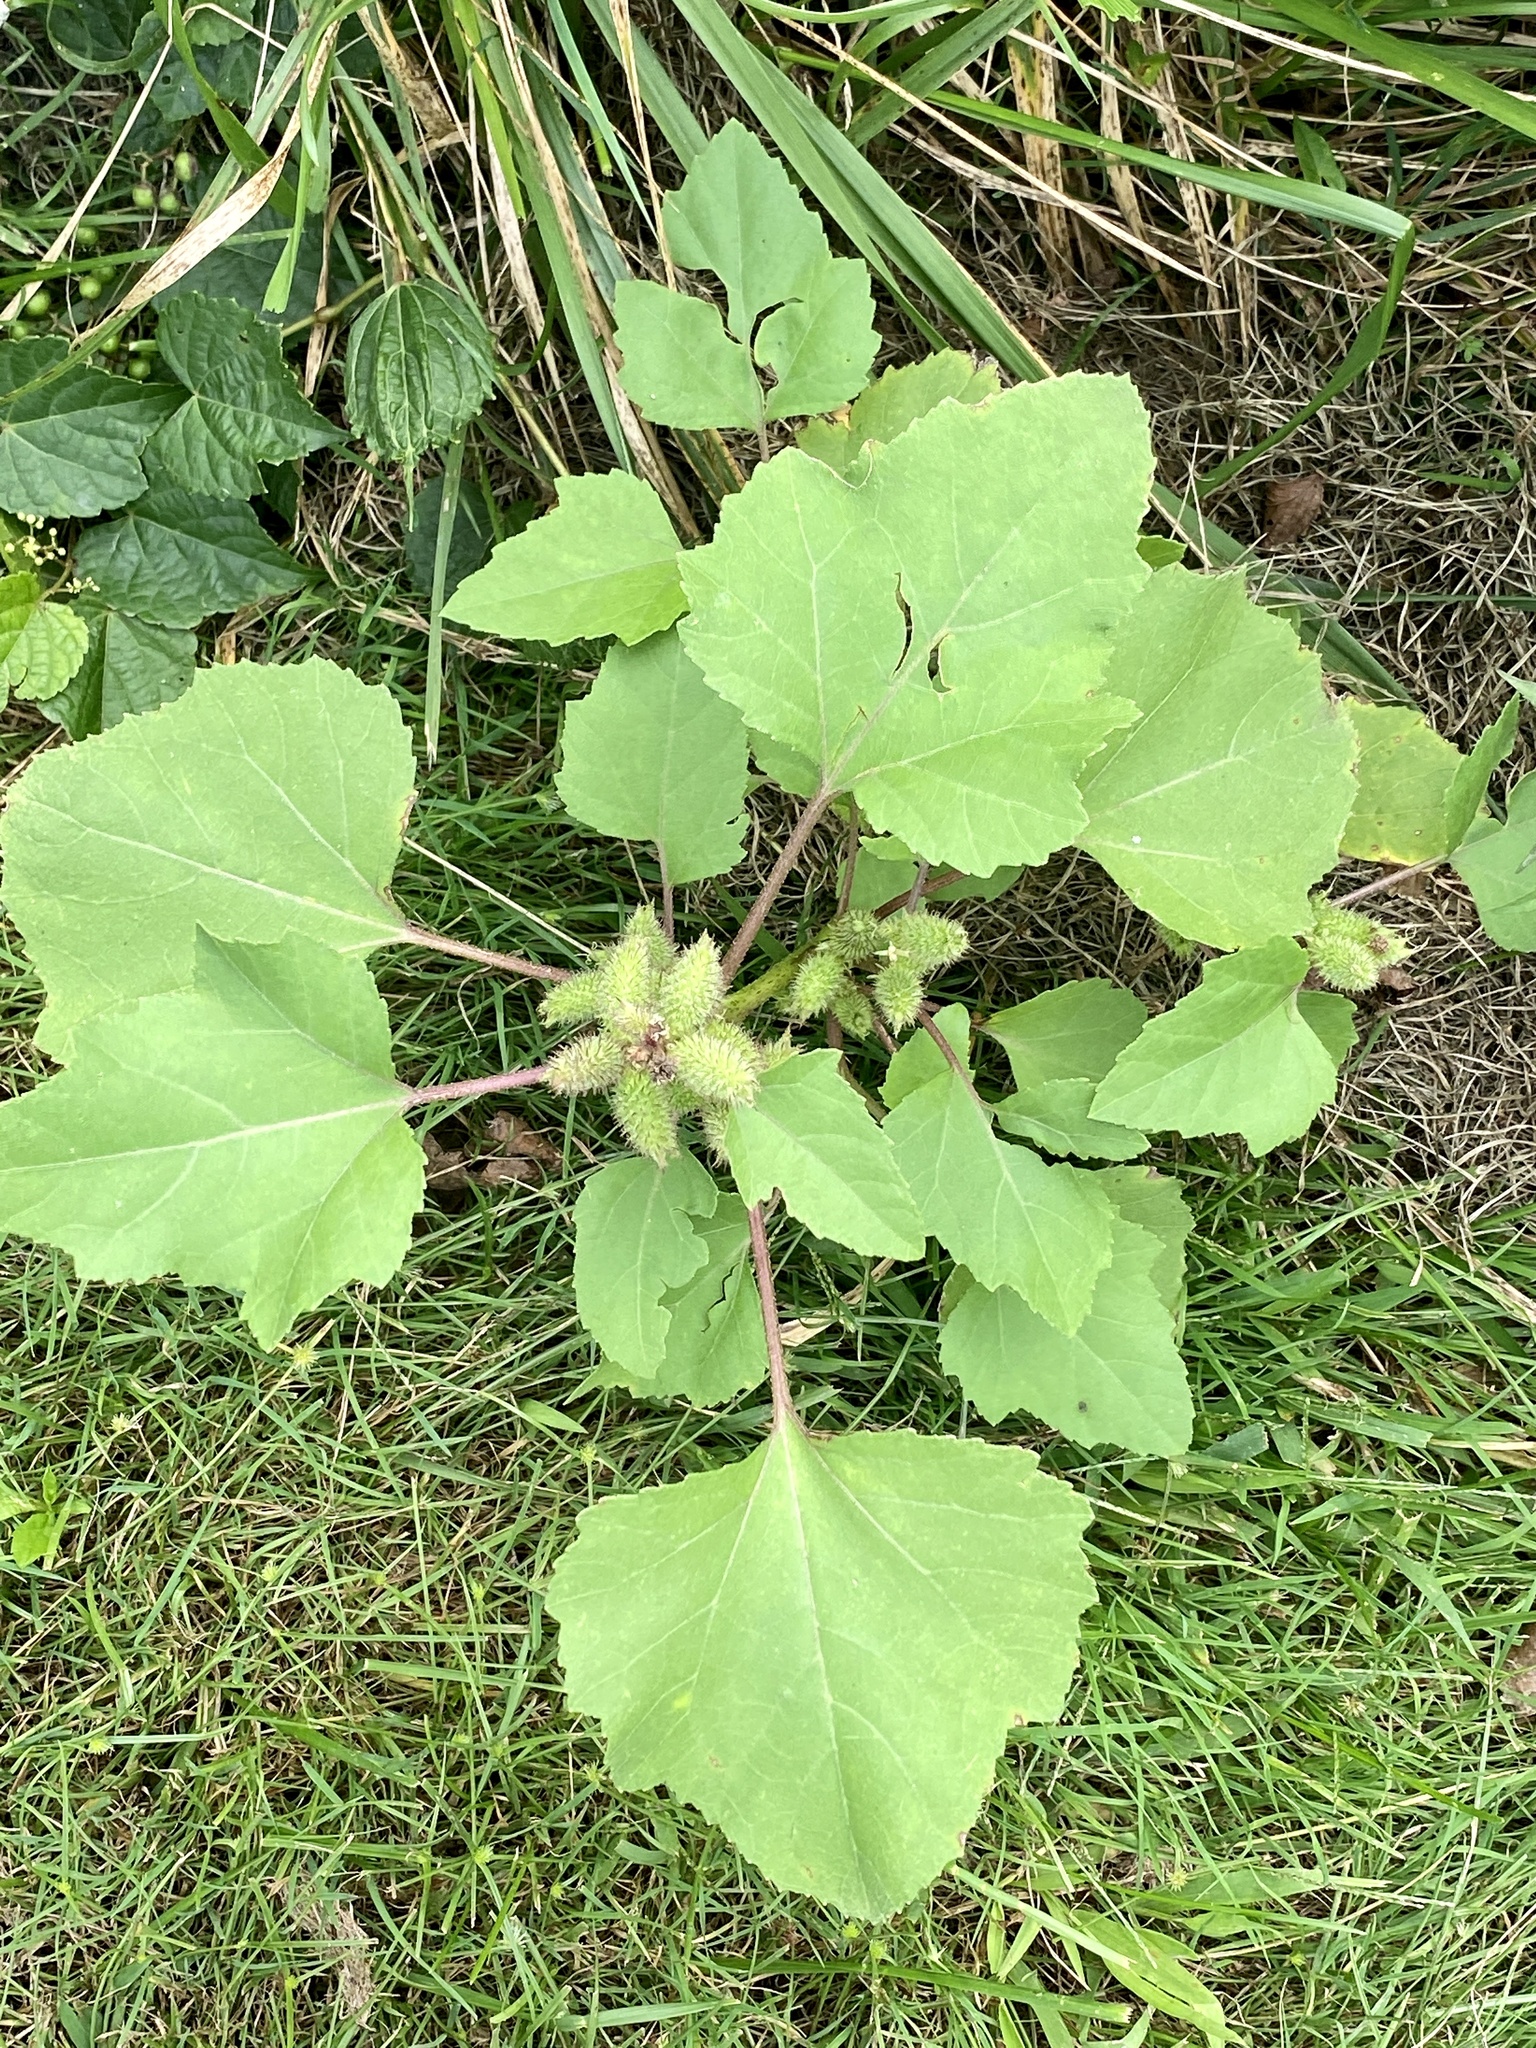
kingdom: Plantae
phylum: Tracheophyta
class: Magnoliopsida
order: Asterales
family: Asteraceae
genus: Xanthium
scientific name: Xanthium strumarium
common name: Rough cocklebur
